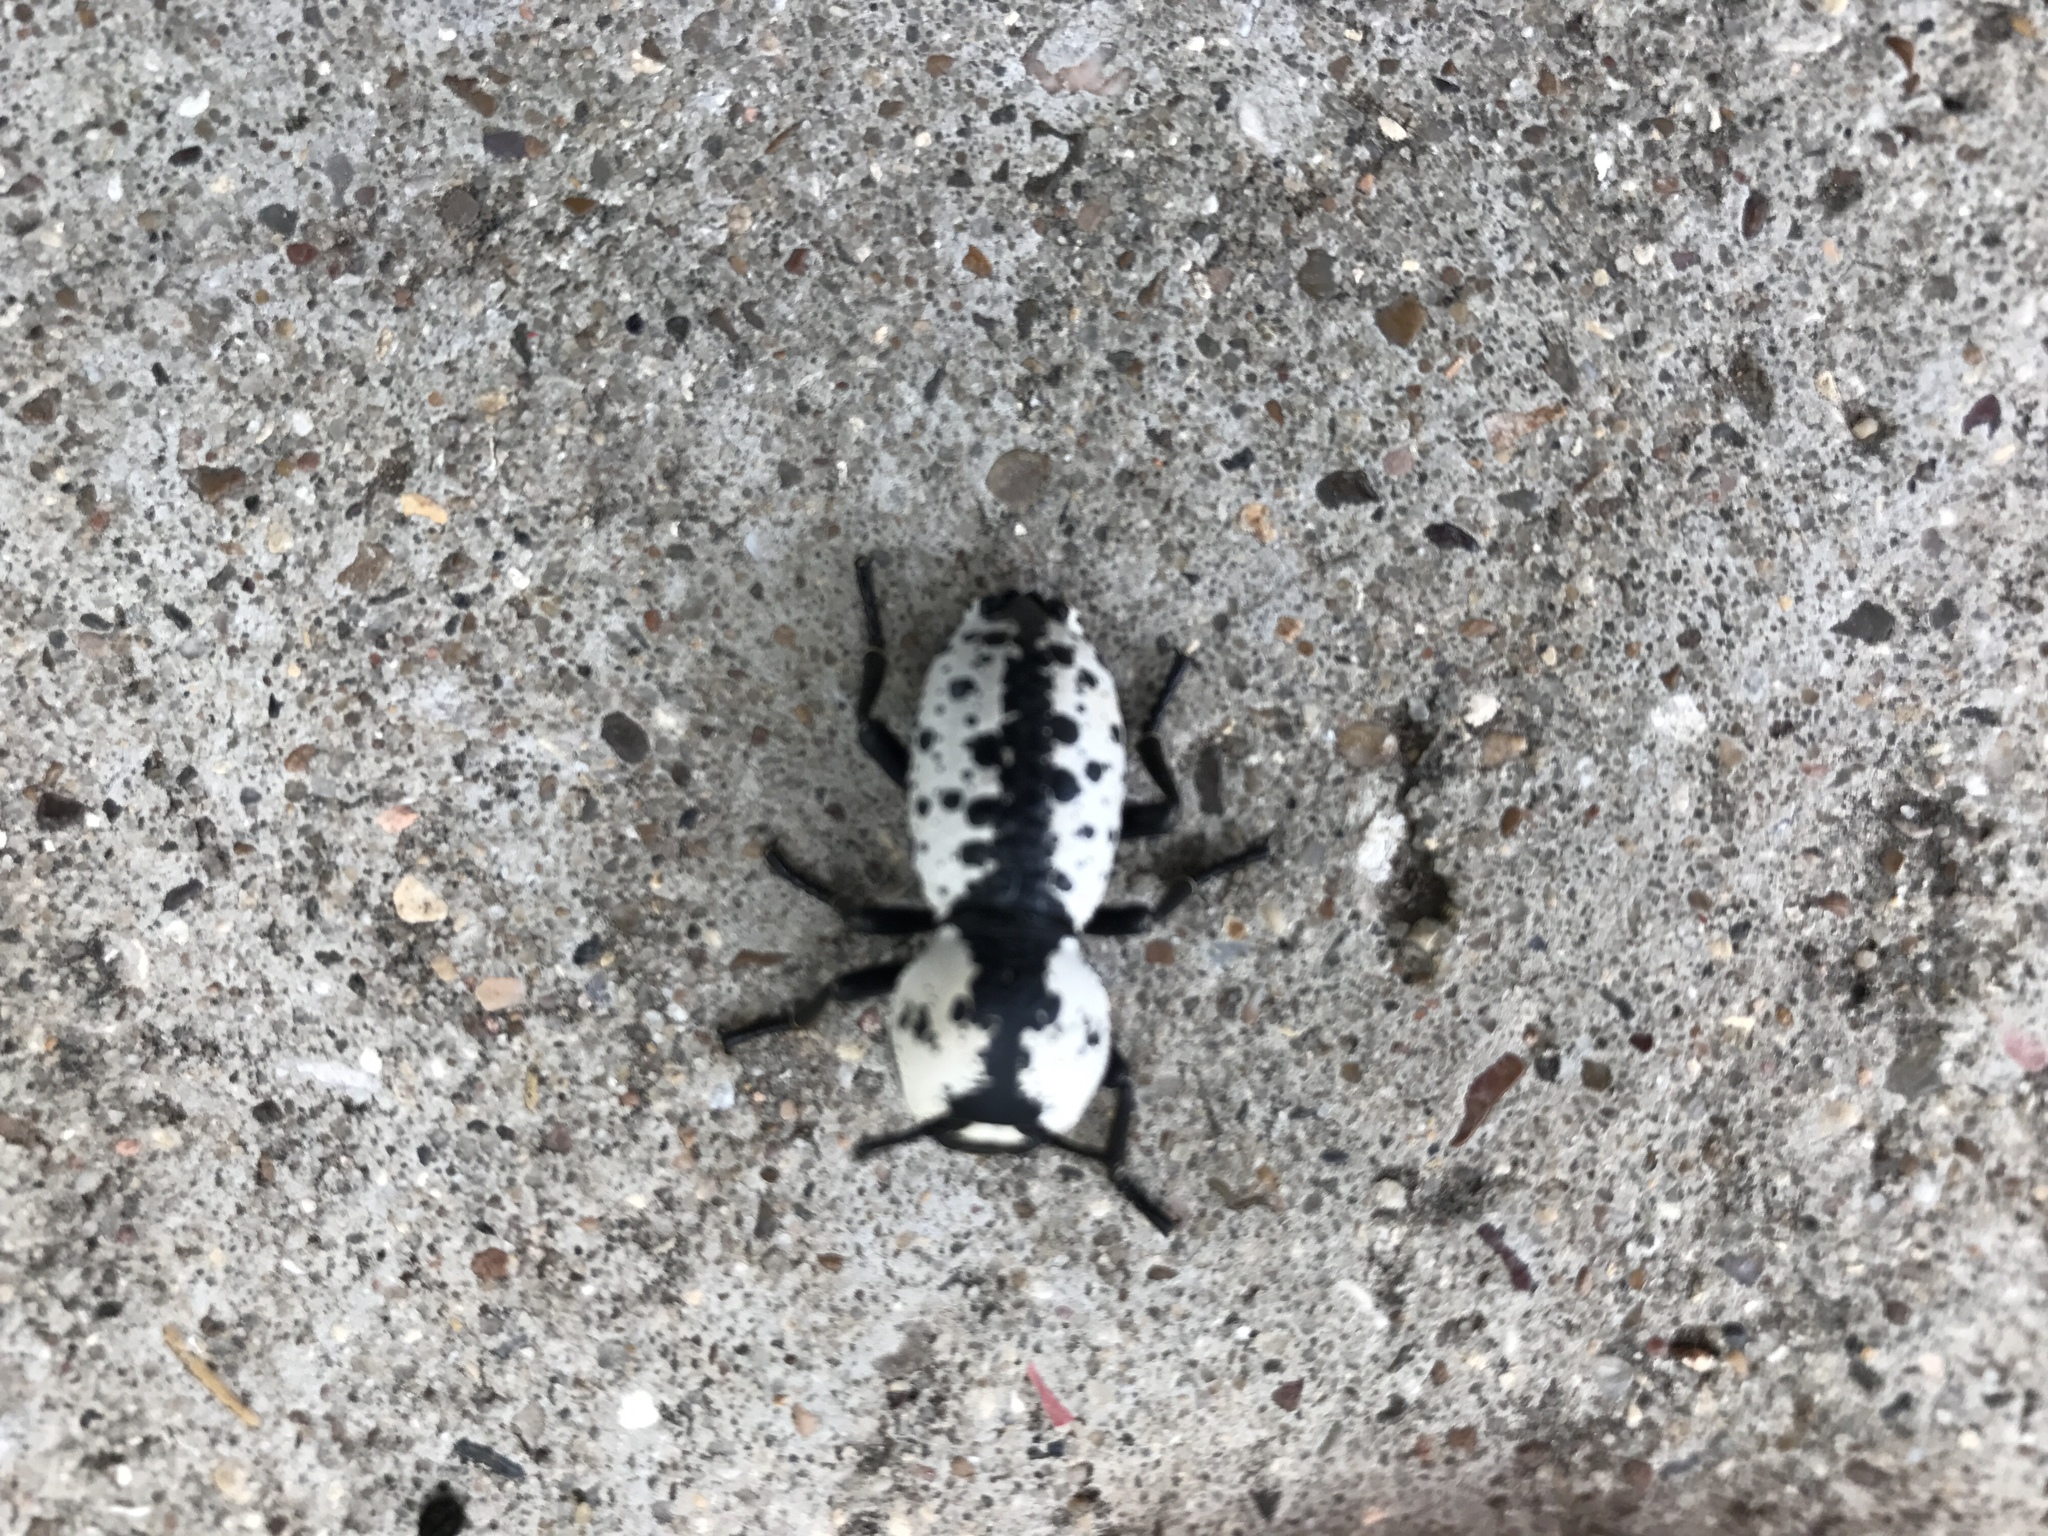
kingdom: Animalia
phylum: Arthropoda
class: Insecta
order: Coleoptera
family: Zopheridae
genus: Zopherus
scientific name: Zopherus nodulosus
